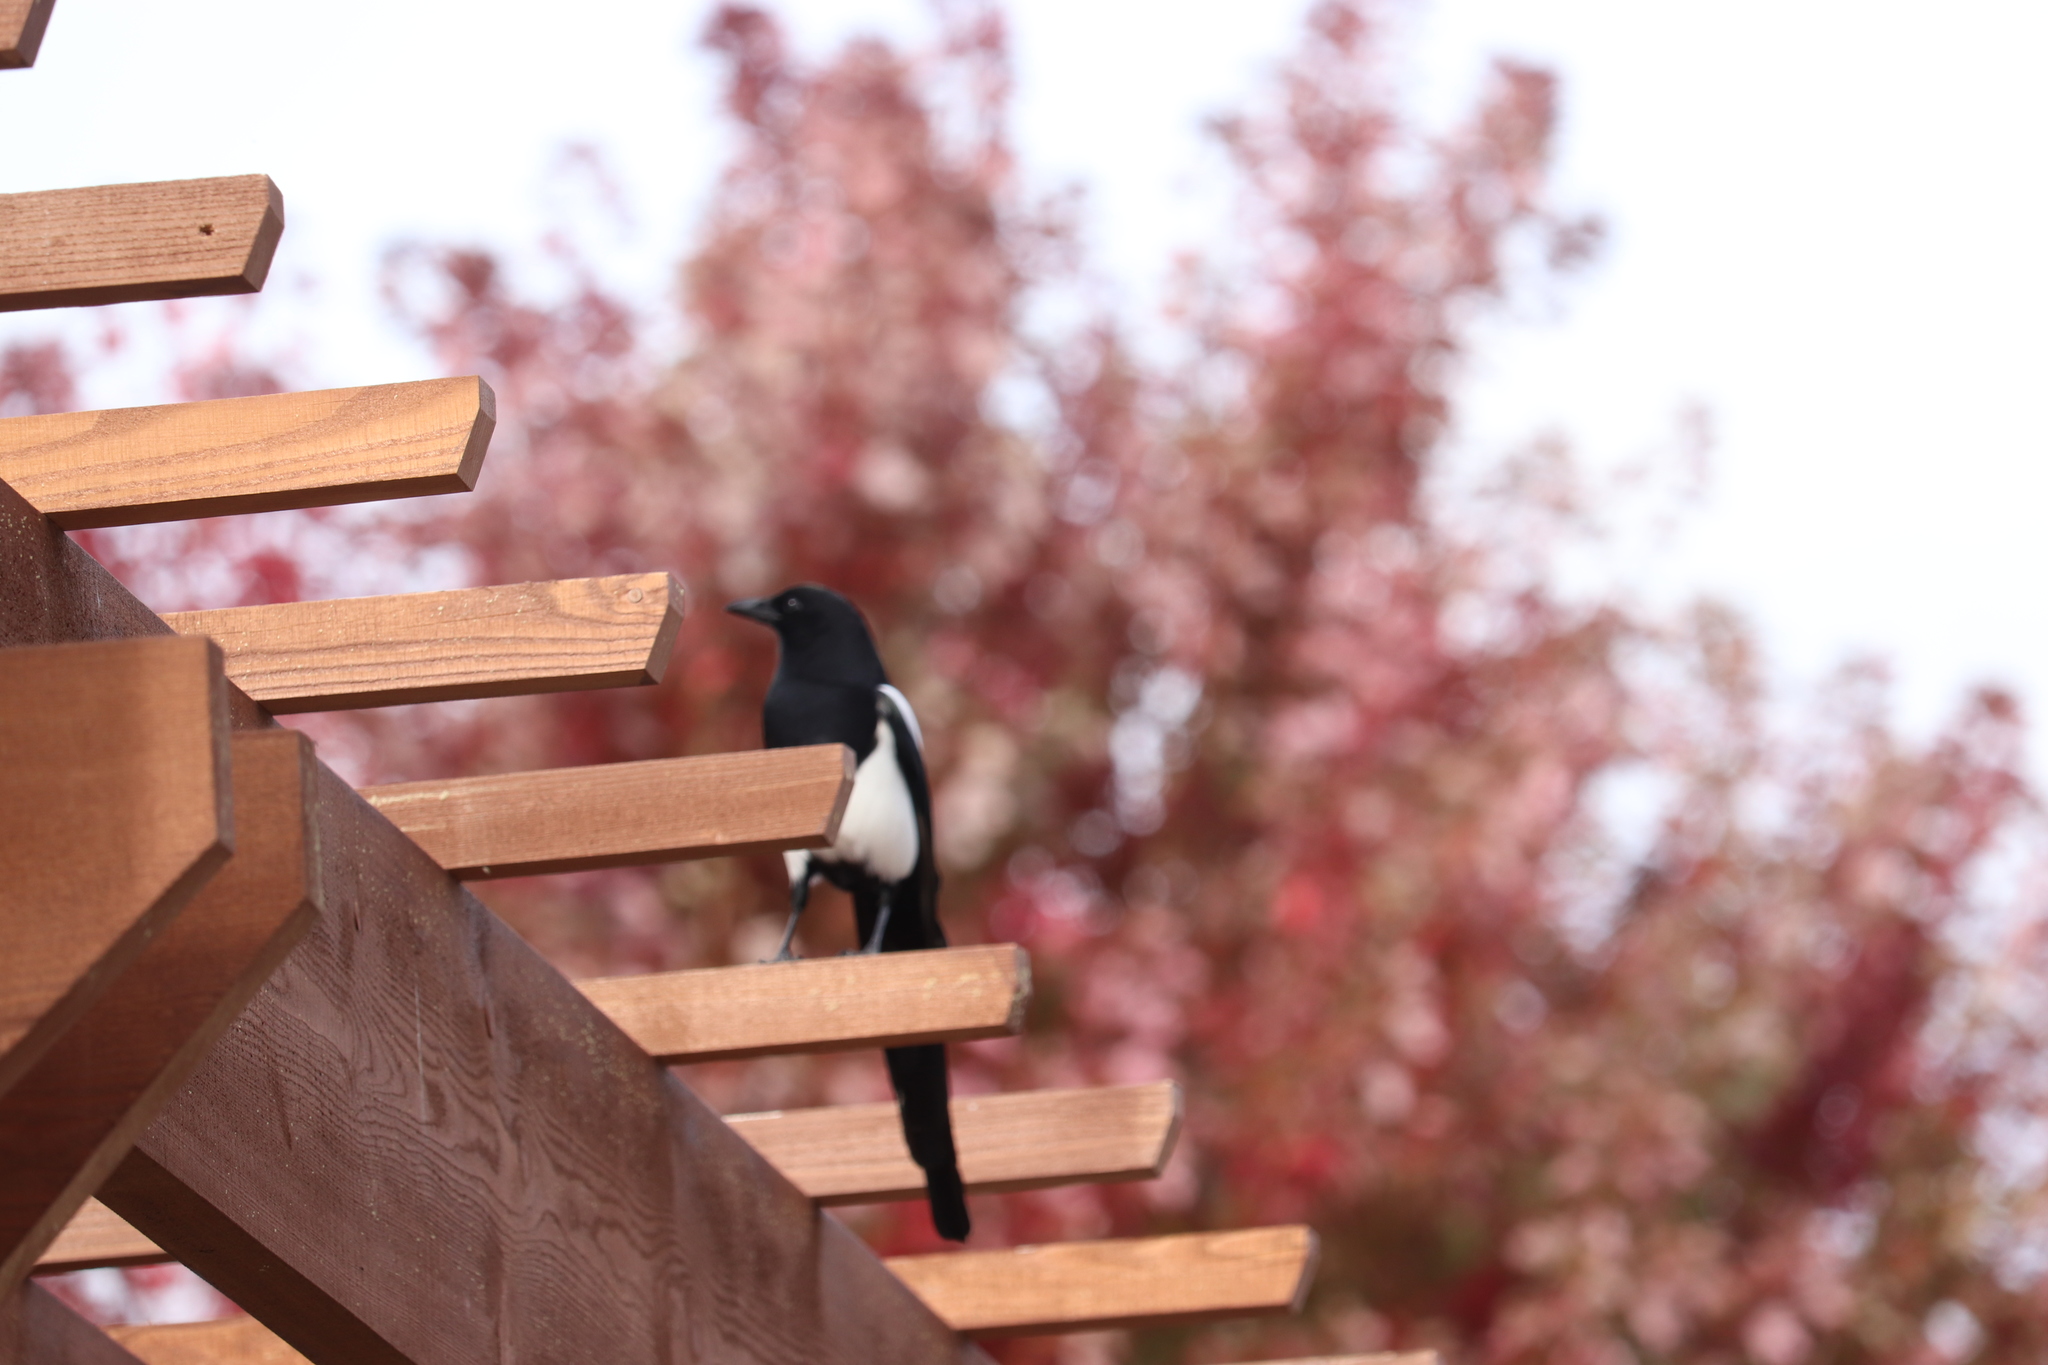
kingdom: Animalia
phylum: Chordata
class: Aves
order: Passeriformes
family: Corvidae
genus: Pica
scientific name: Pica hudsonia
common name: Black-billed magpie
